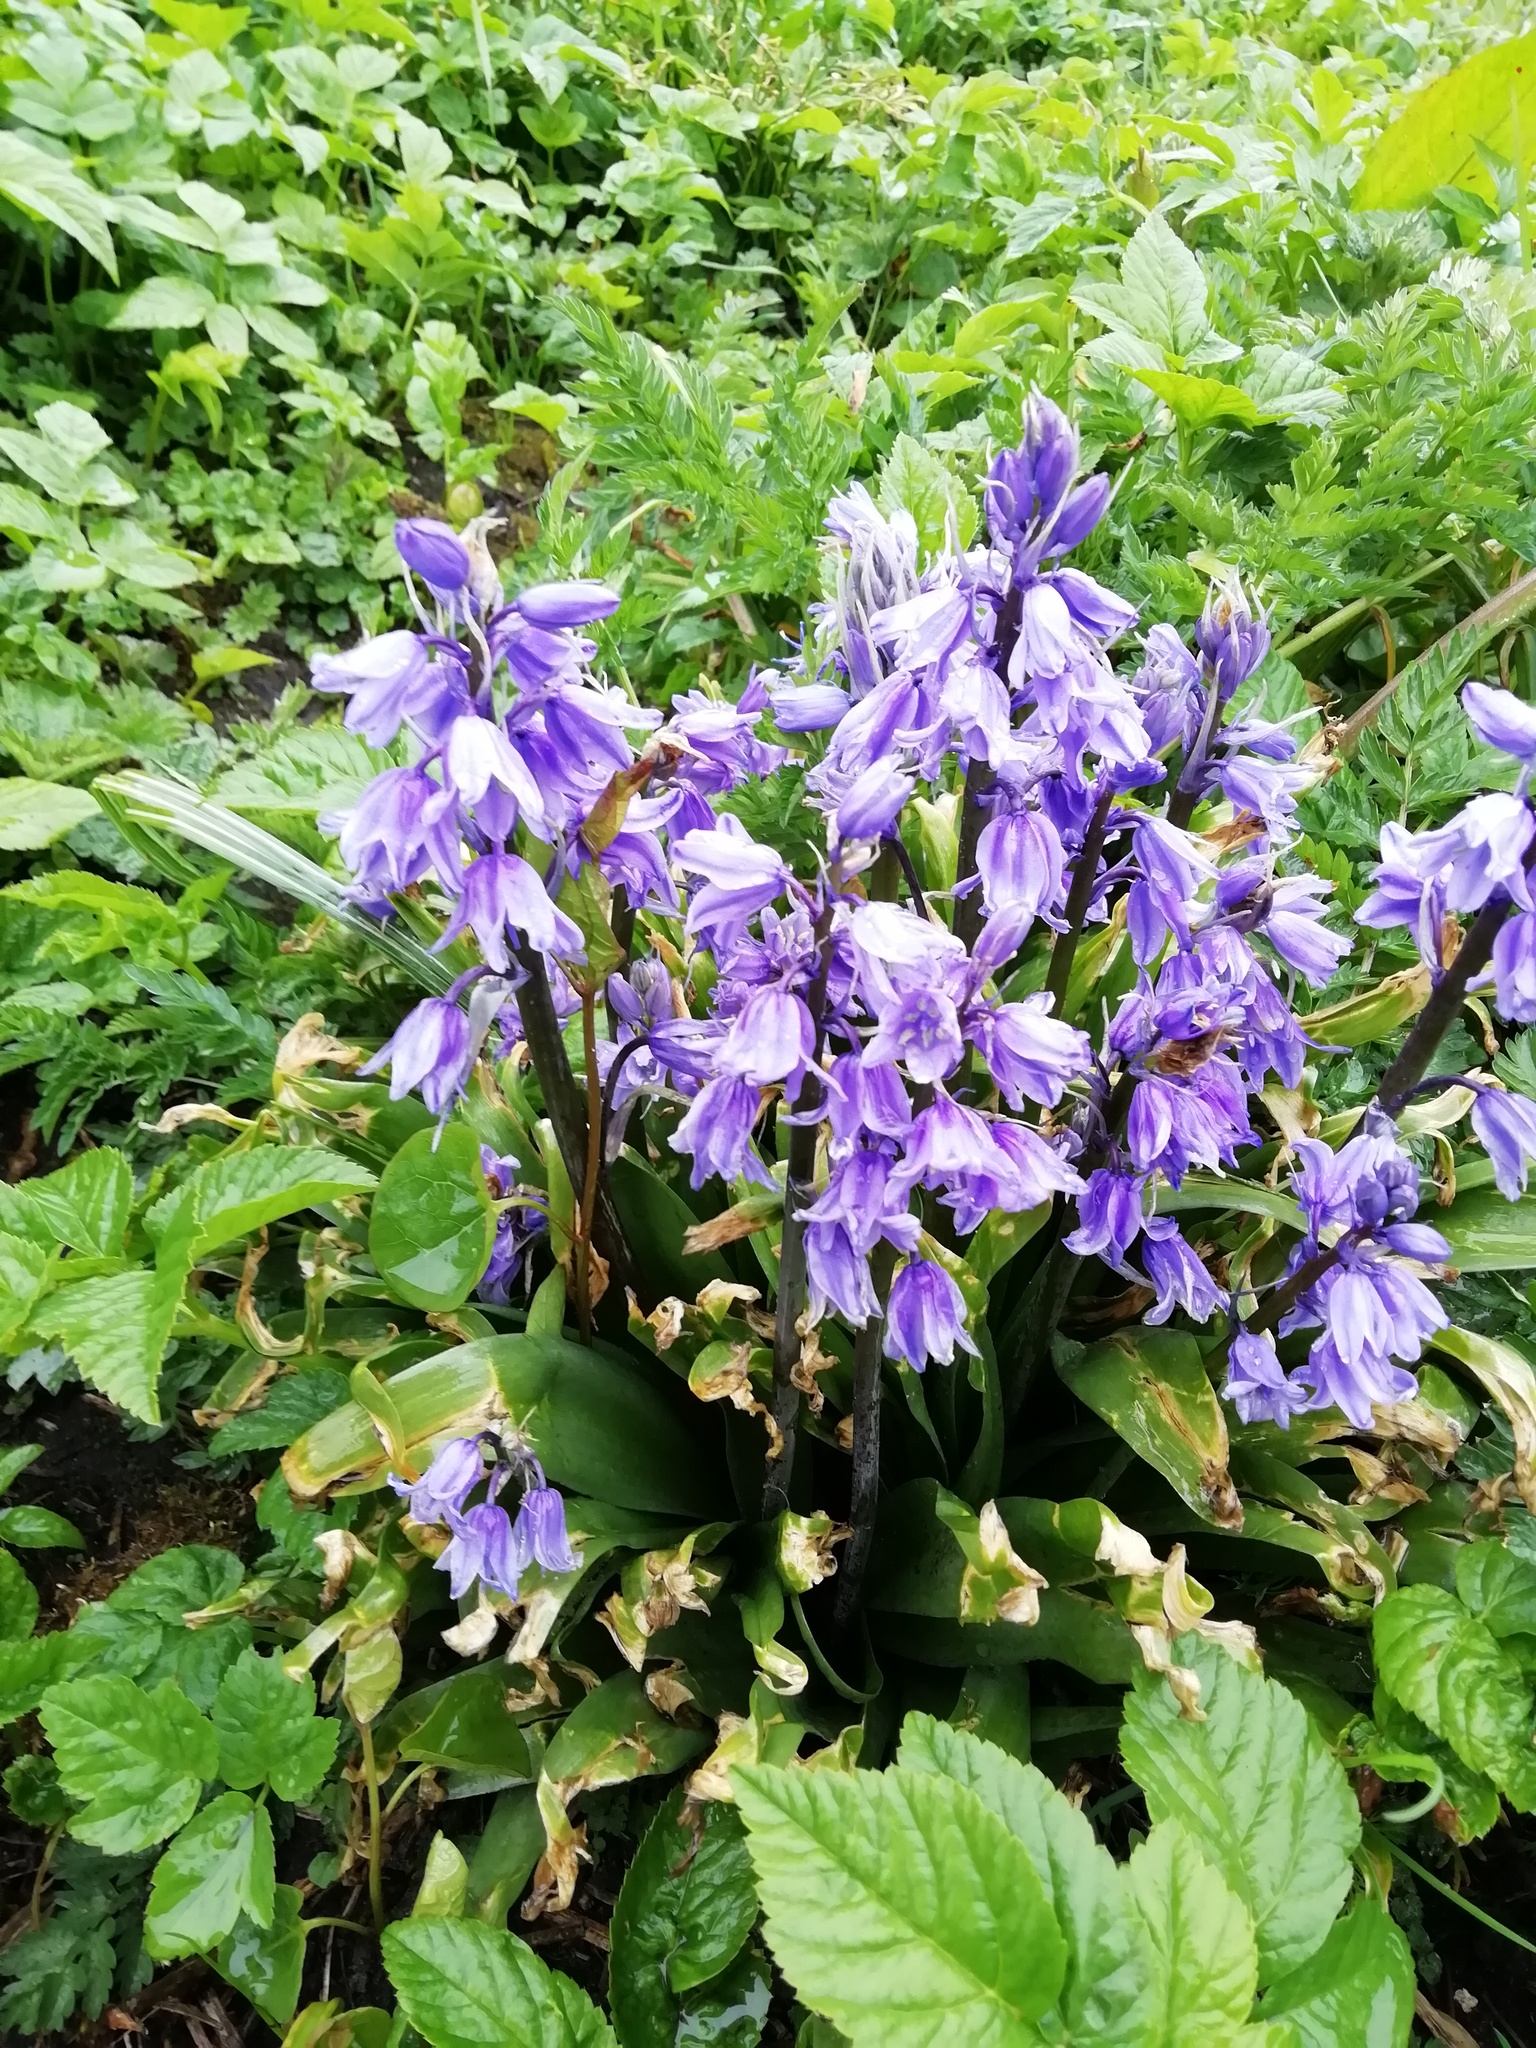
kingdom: Plantae
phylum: Tracheophyta
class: Liliopsida
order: Asparagales
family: Asparagaceae
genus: Hyacinthoides
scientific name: Hyacinthoides hispanica
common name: Spanish bluebell
